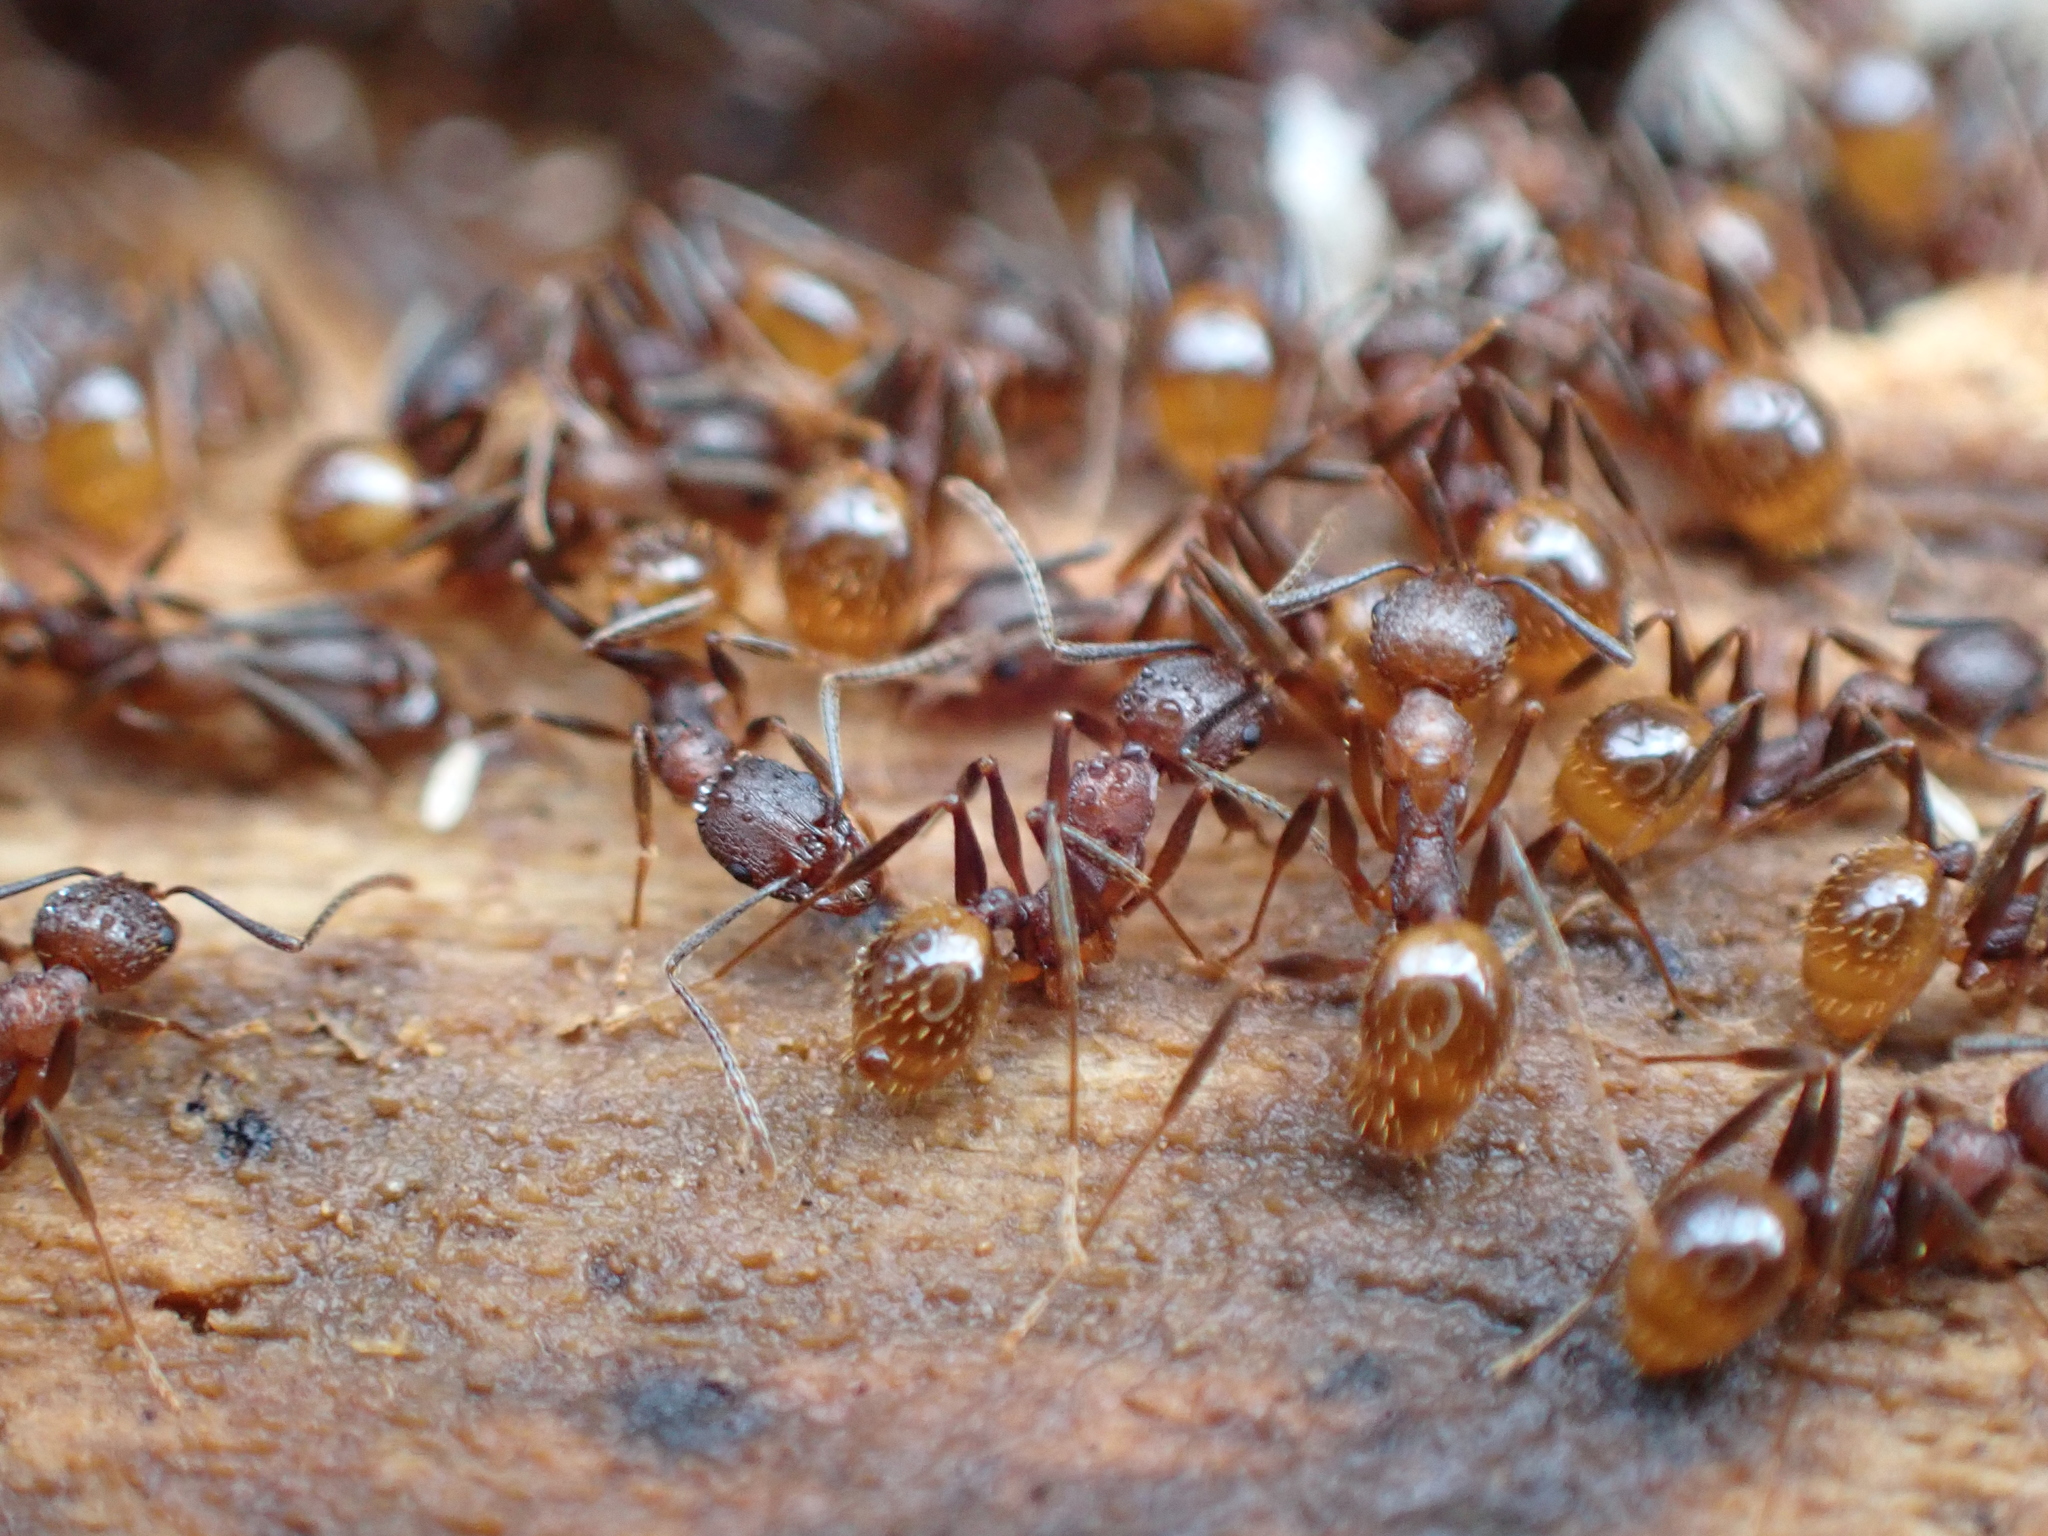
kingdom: Animalia
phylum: Arthropoda
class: Insecta
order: Hymenoptera
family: Formicidae
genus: Aphaenogaster
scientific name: Aphaenogaster fulva
